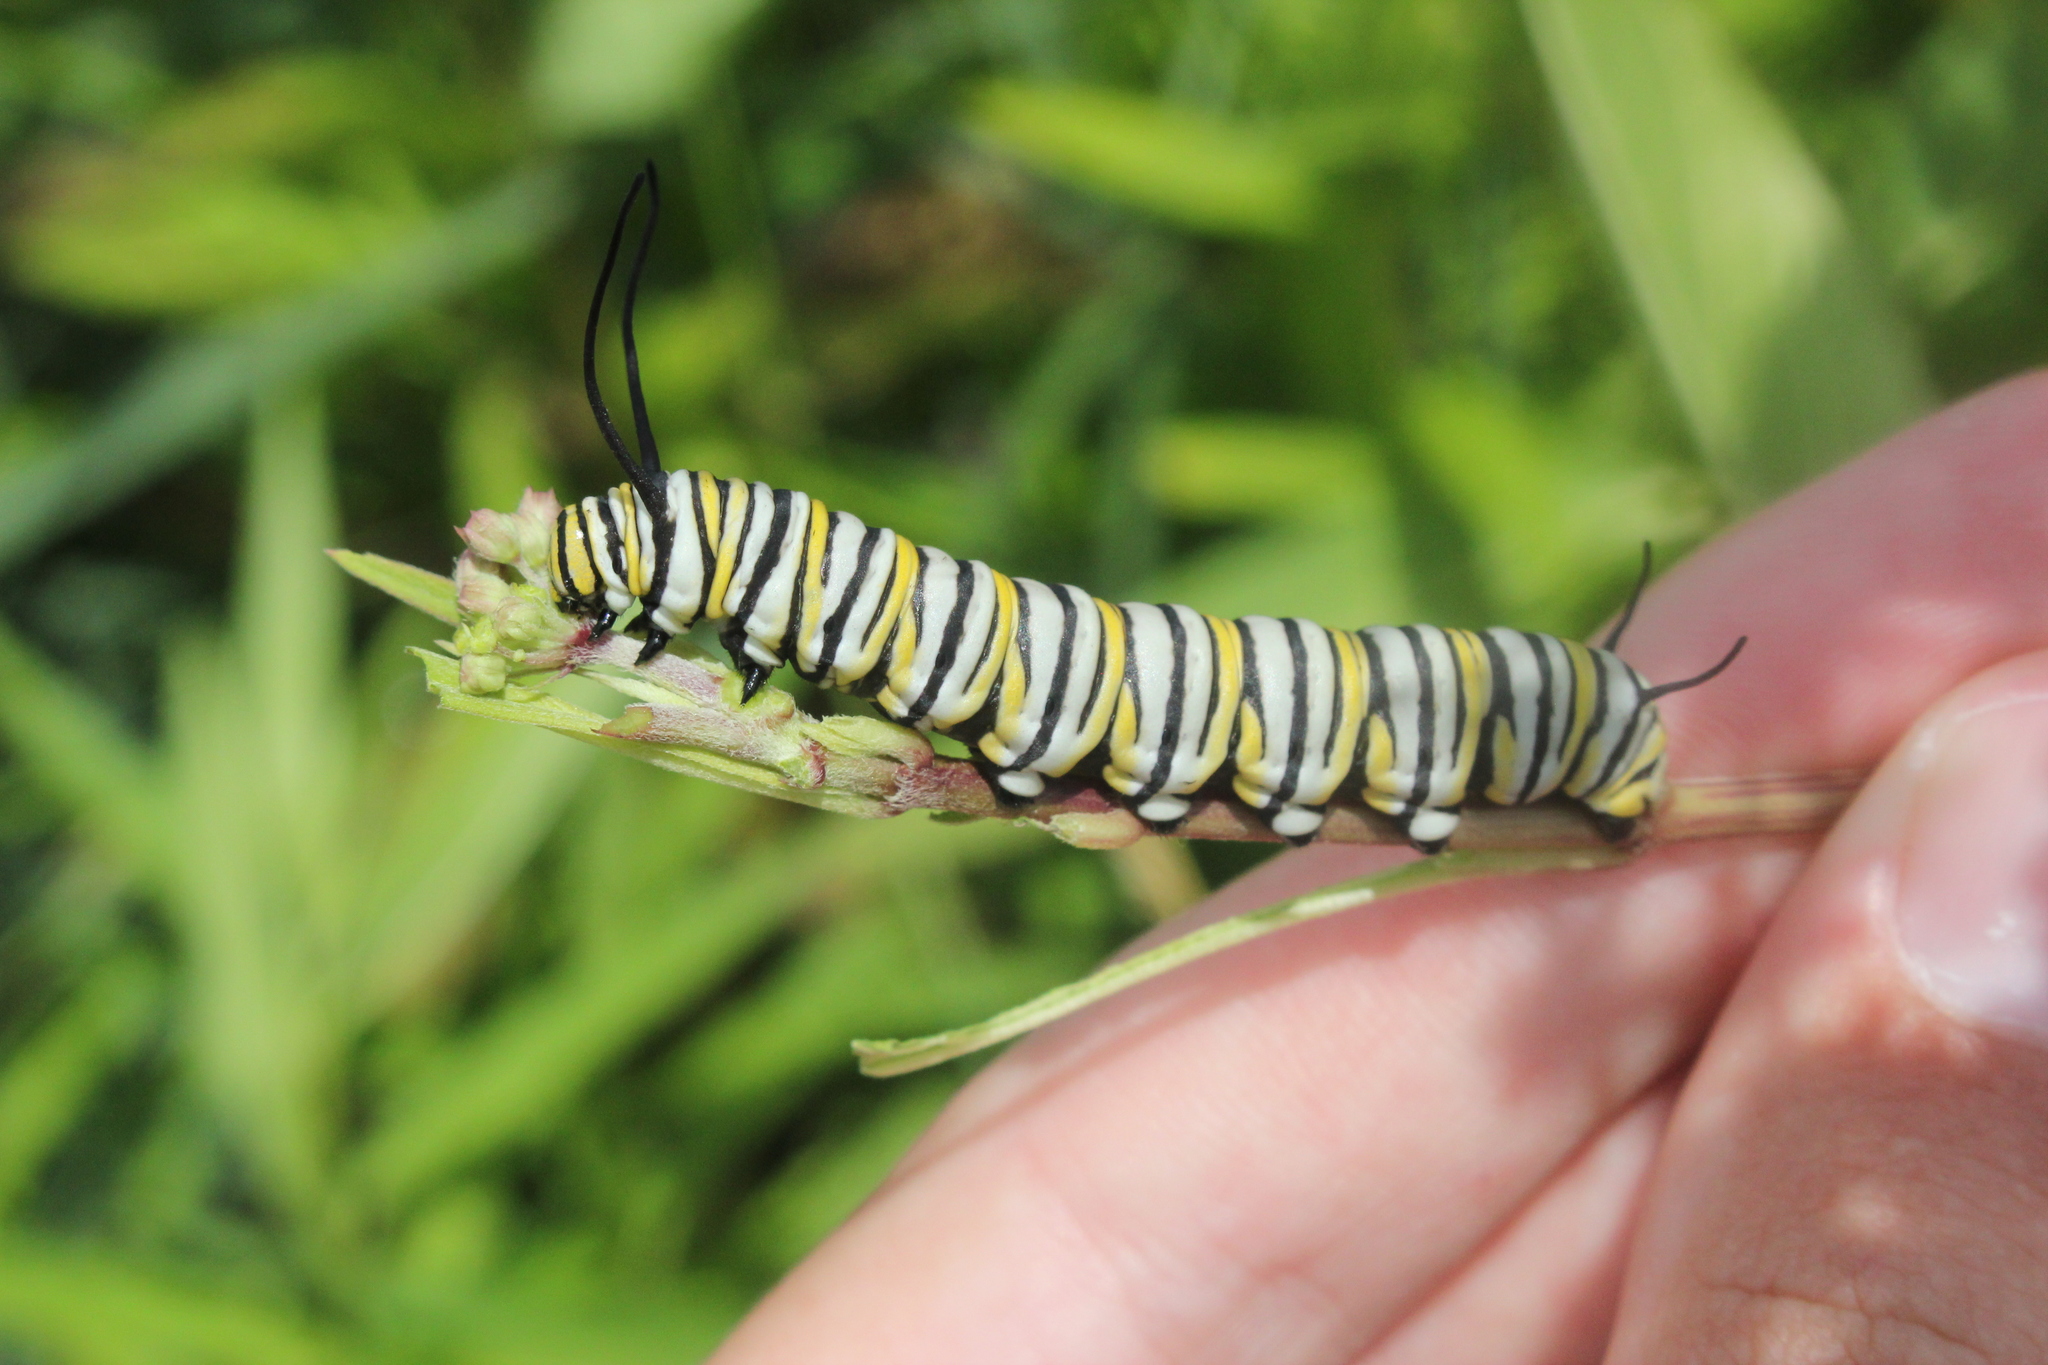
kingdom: Animalia
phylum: Arthropoda
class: Insecta
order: Lepidoptera
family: Nymphalidae
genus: Danaus
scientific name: Danaus plexippus
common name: Monarch
